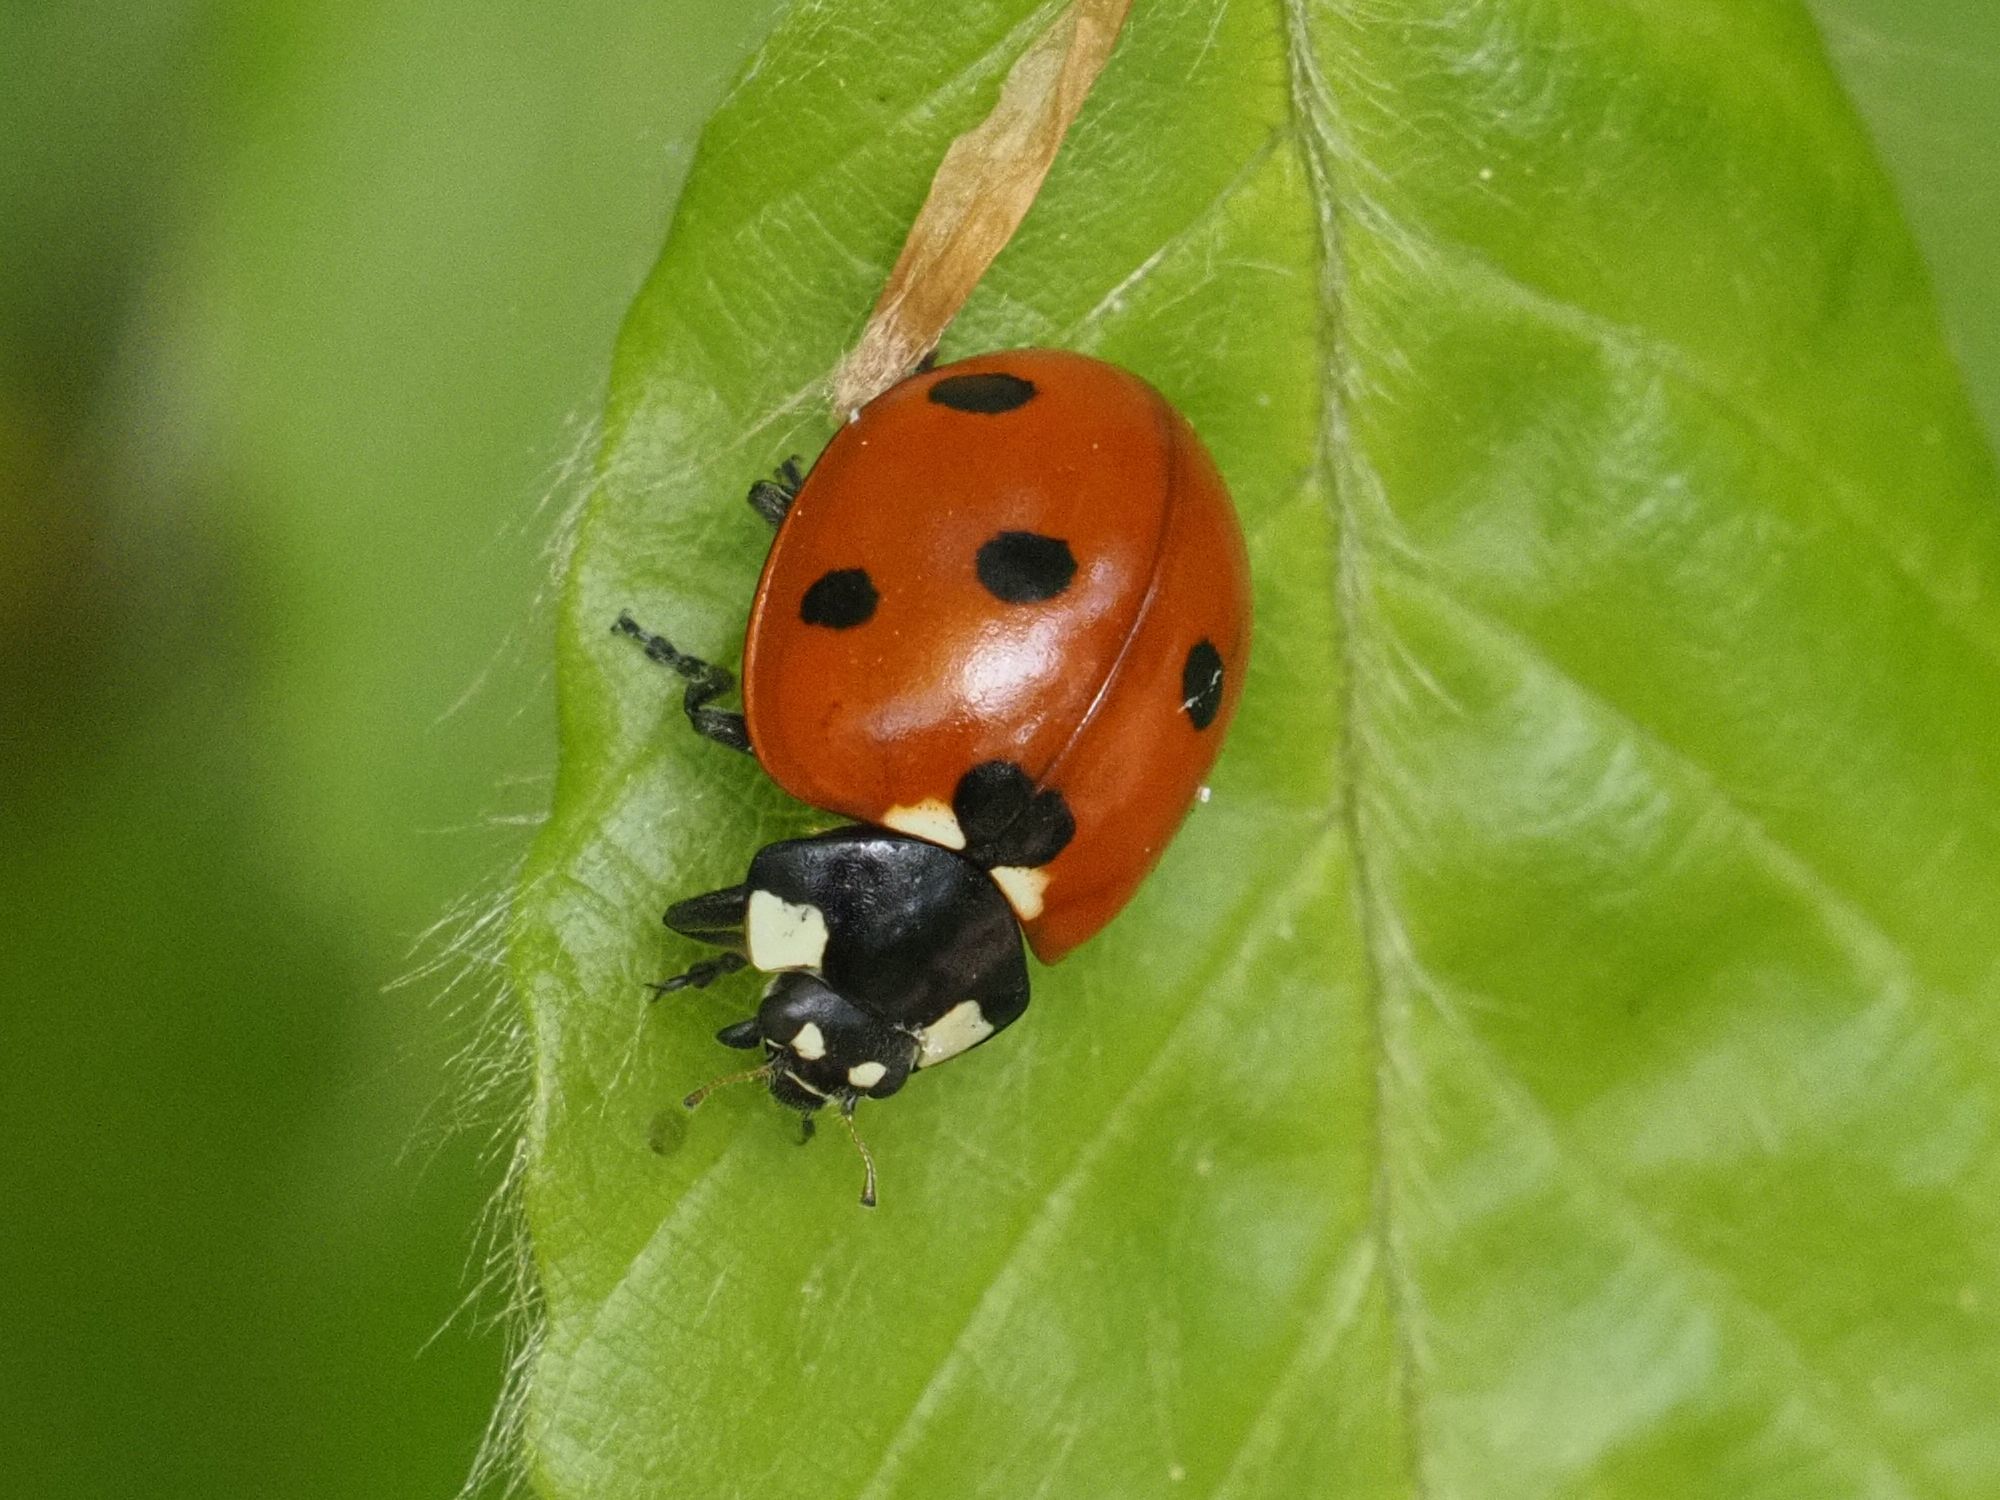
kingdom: Animalia
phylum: Arthropoda
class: Insecta
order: Coleoptera
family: Coccinellidae
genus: Coccinella
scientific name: Coccinella septempunctata
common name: Sevenspotted lady beetle
